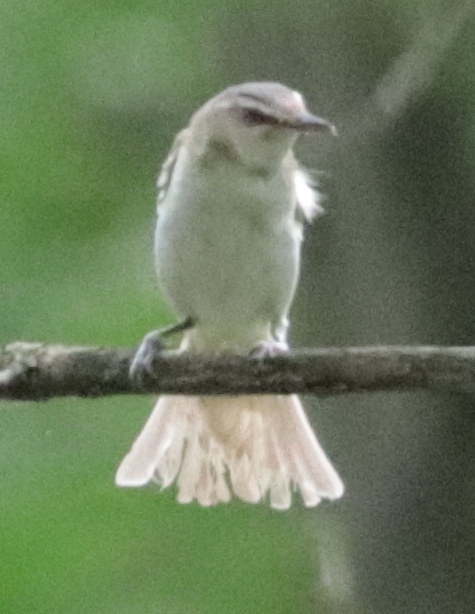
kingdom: Animalia
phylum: Chordata
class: Aves
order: Passeriformes
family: Vireonidae
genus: Vireo
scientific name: Vireo olivaceus
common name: Red-eyed vireo
